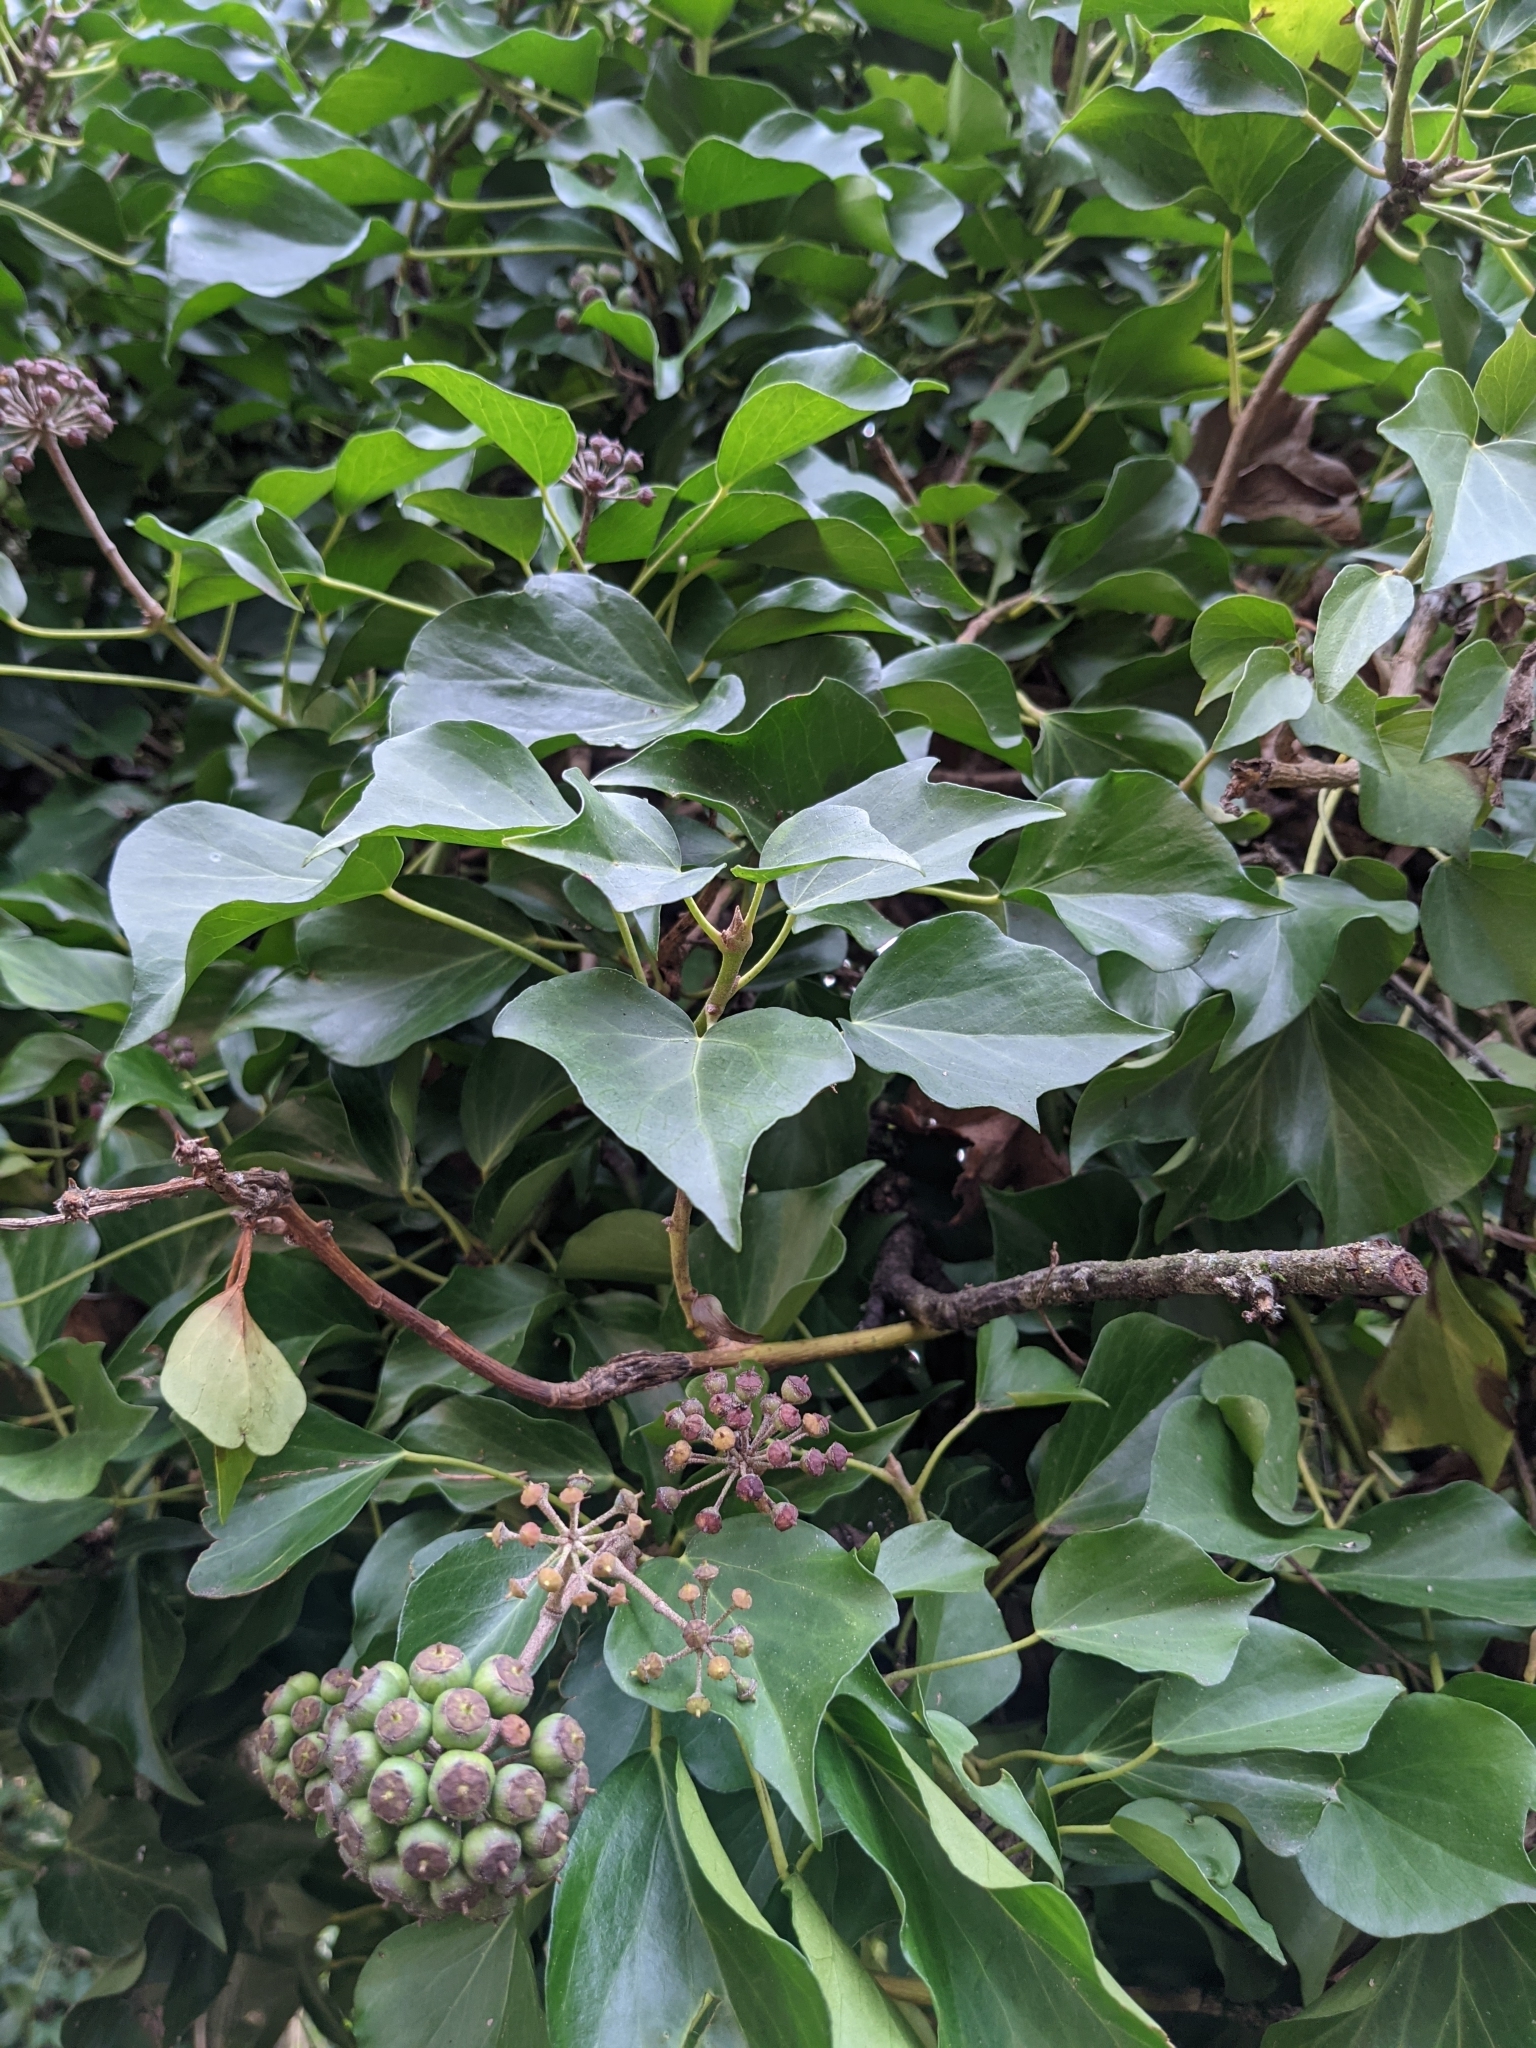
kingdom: Plantae
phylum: Tracheophyta
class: Magnoliopsida
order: Apiales
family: Araliaceae
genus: Hedera
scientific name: Hedera helix
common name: Ivy
